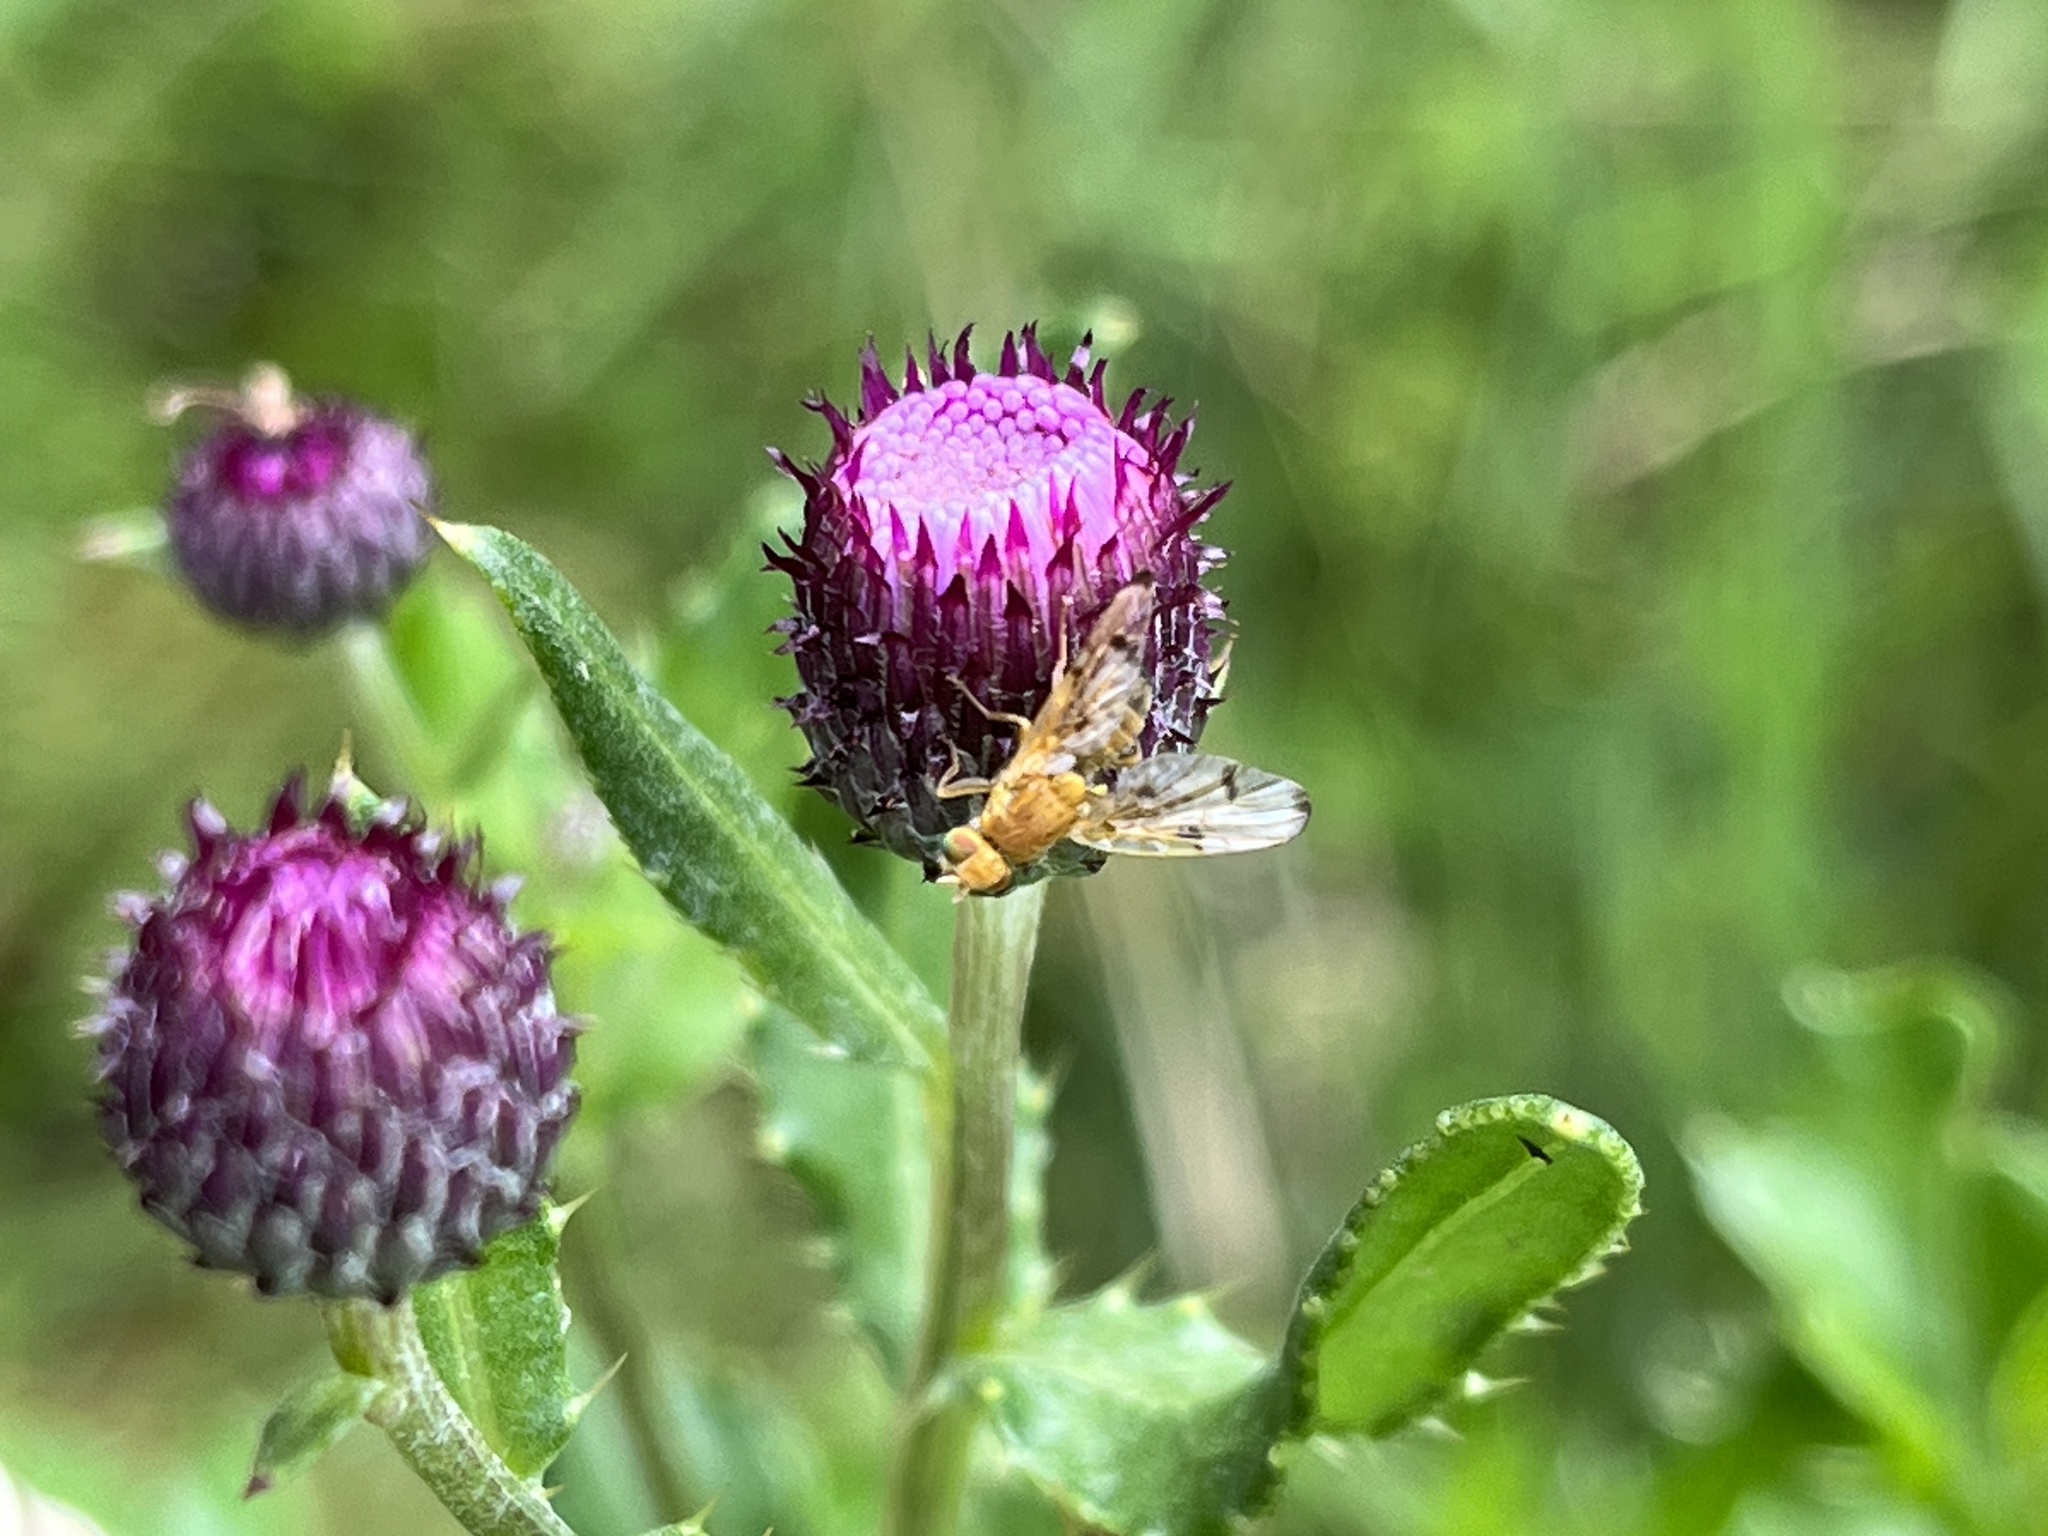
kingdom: Animalia
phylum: Arthropoda
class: Insecta
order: Diptera
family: Tephritidae
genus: Xyphosia
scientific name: Xyphosia miliaria
